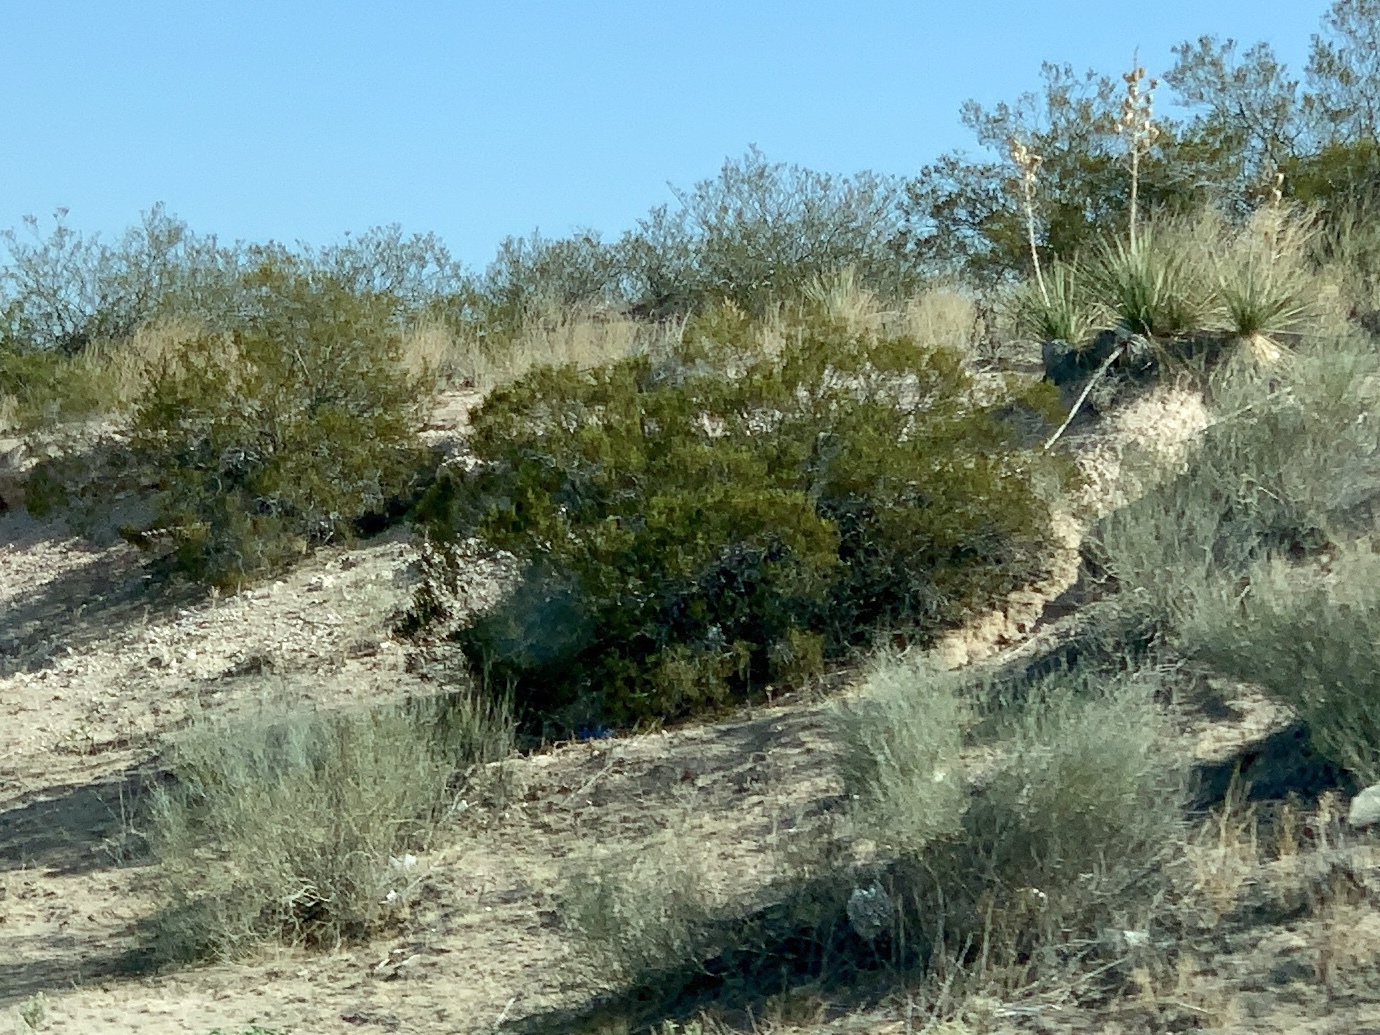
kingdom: Plantae
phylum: Tracheophyta
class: Magnoliopsida
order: Zygophyllales
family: Zygophyllaceae
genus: Larrea
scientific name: Larrea tridentata
